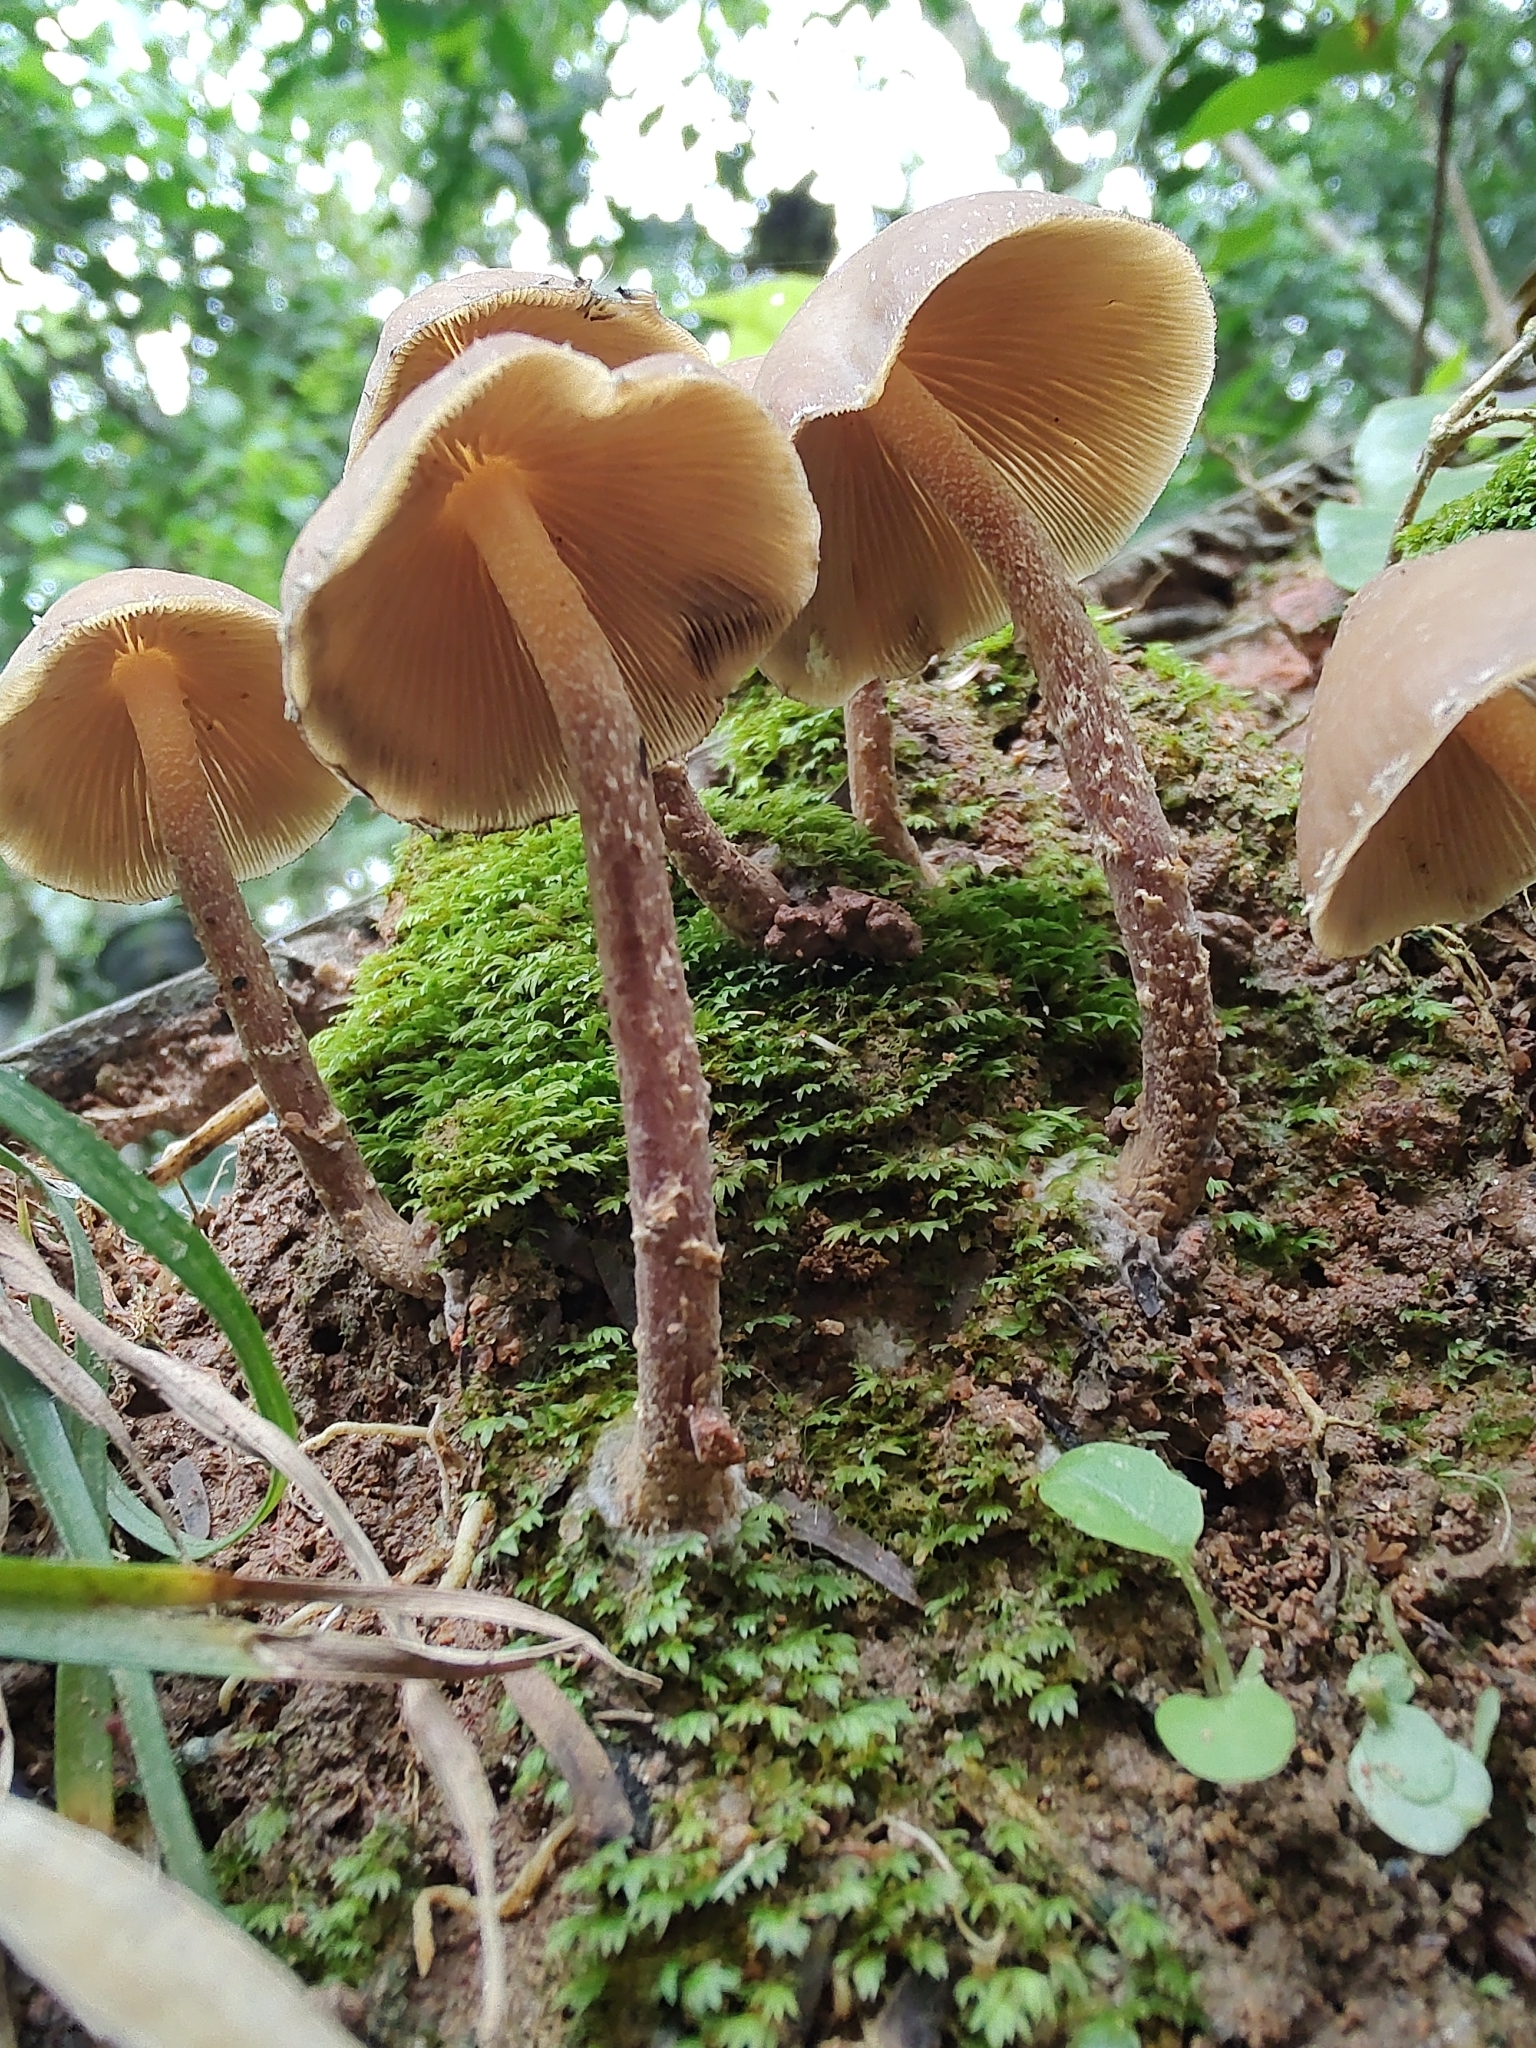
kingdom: Fungi
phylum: Basidiomycota
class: Agaricomycetes
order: Agaricales
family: Hymenogastraceae
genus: Psilocybe
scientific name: Psilocybe zapotecorum
